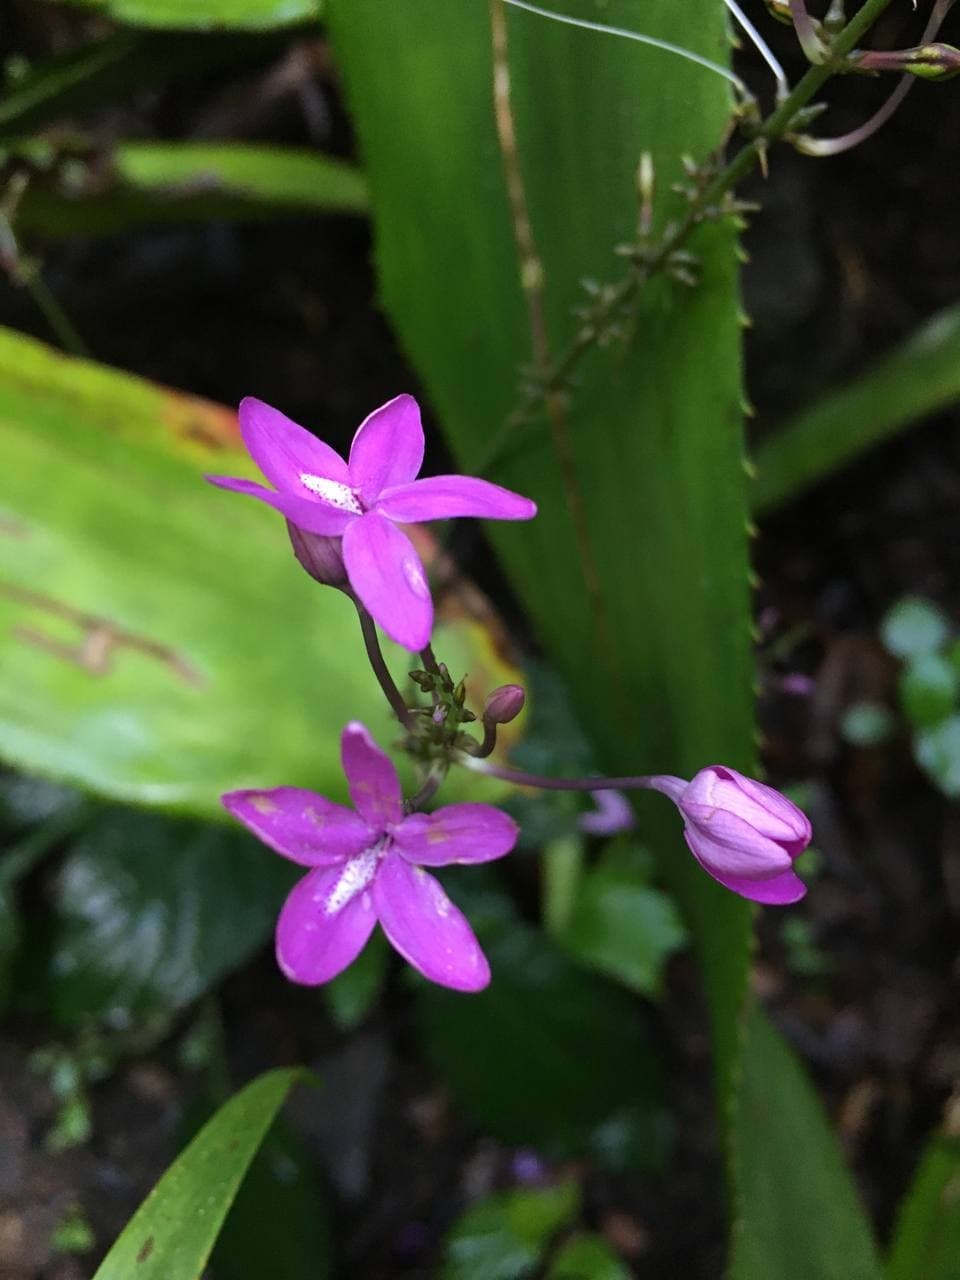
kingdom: Plantae
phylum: Tracheophyta
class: Magnoliopsida
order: Lamiales
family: Acanthaceae
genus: Pseuderanthemum
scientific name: Pseuderanthemum praecox
